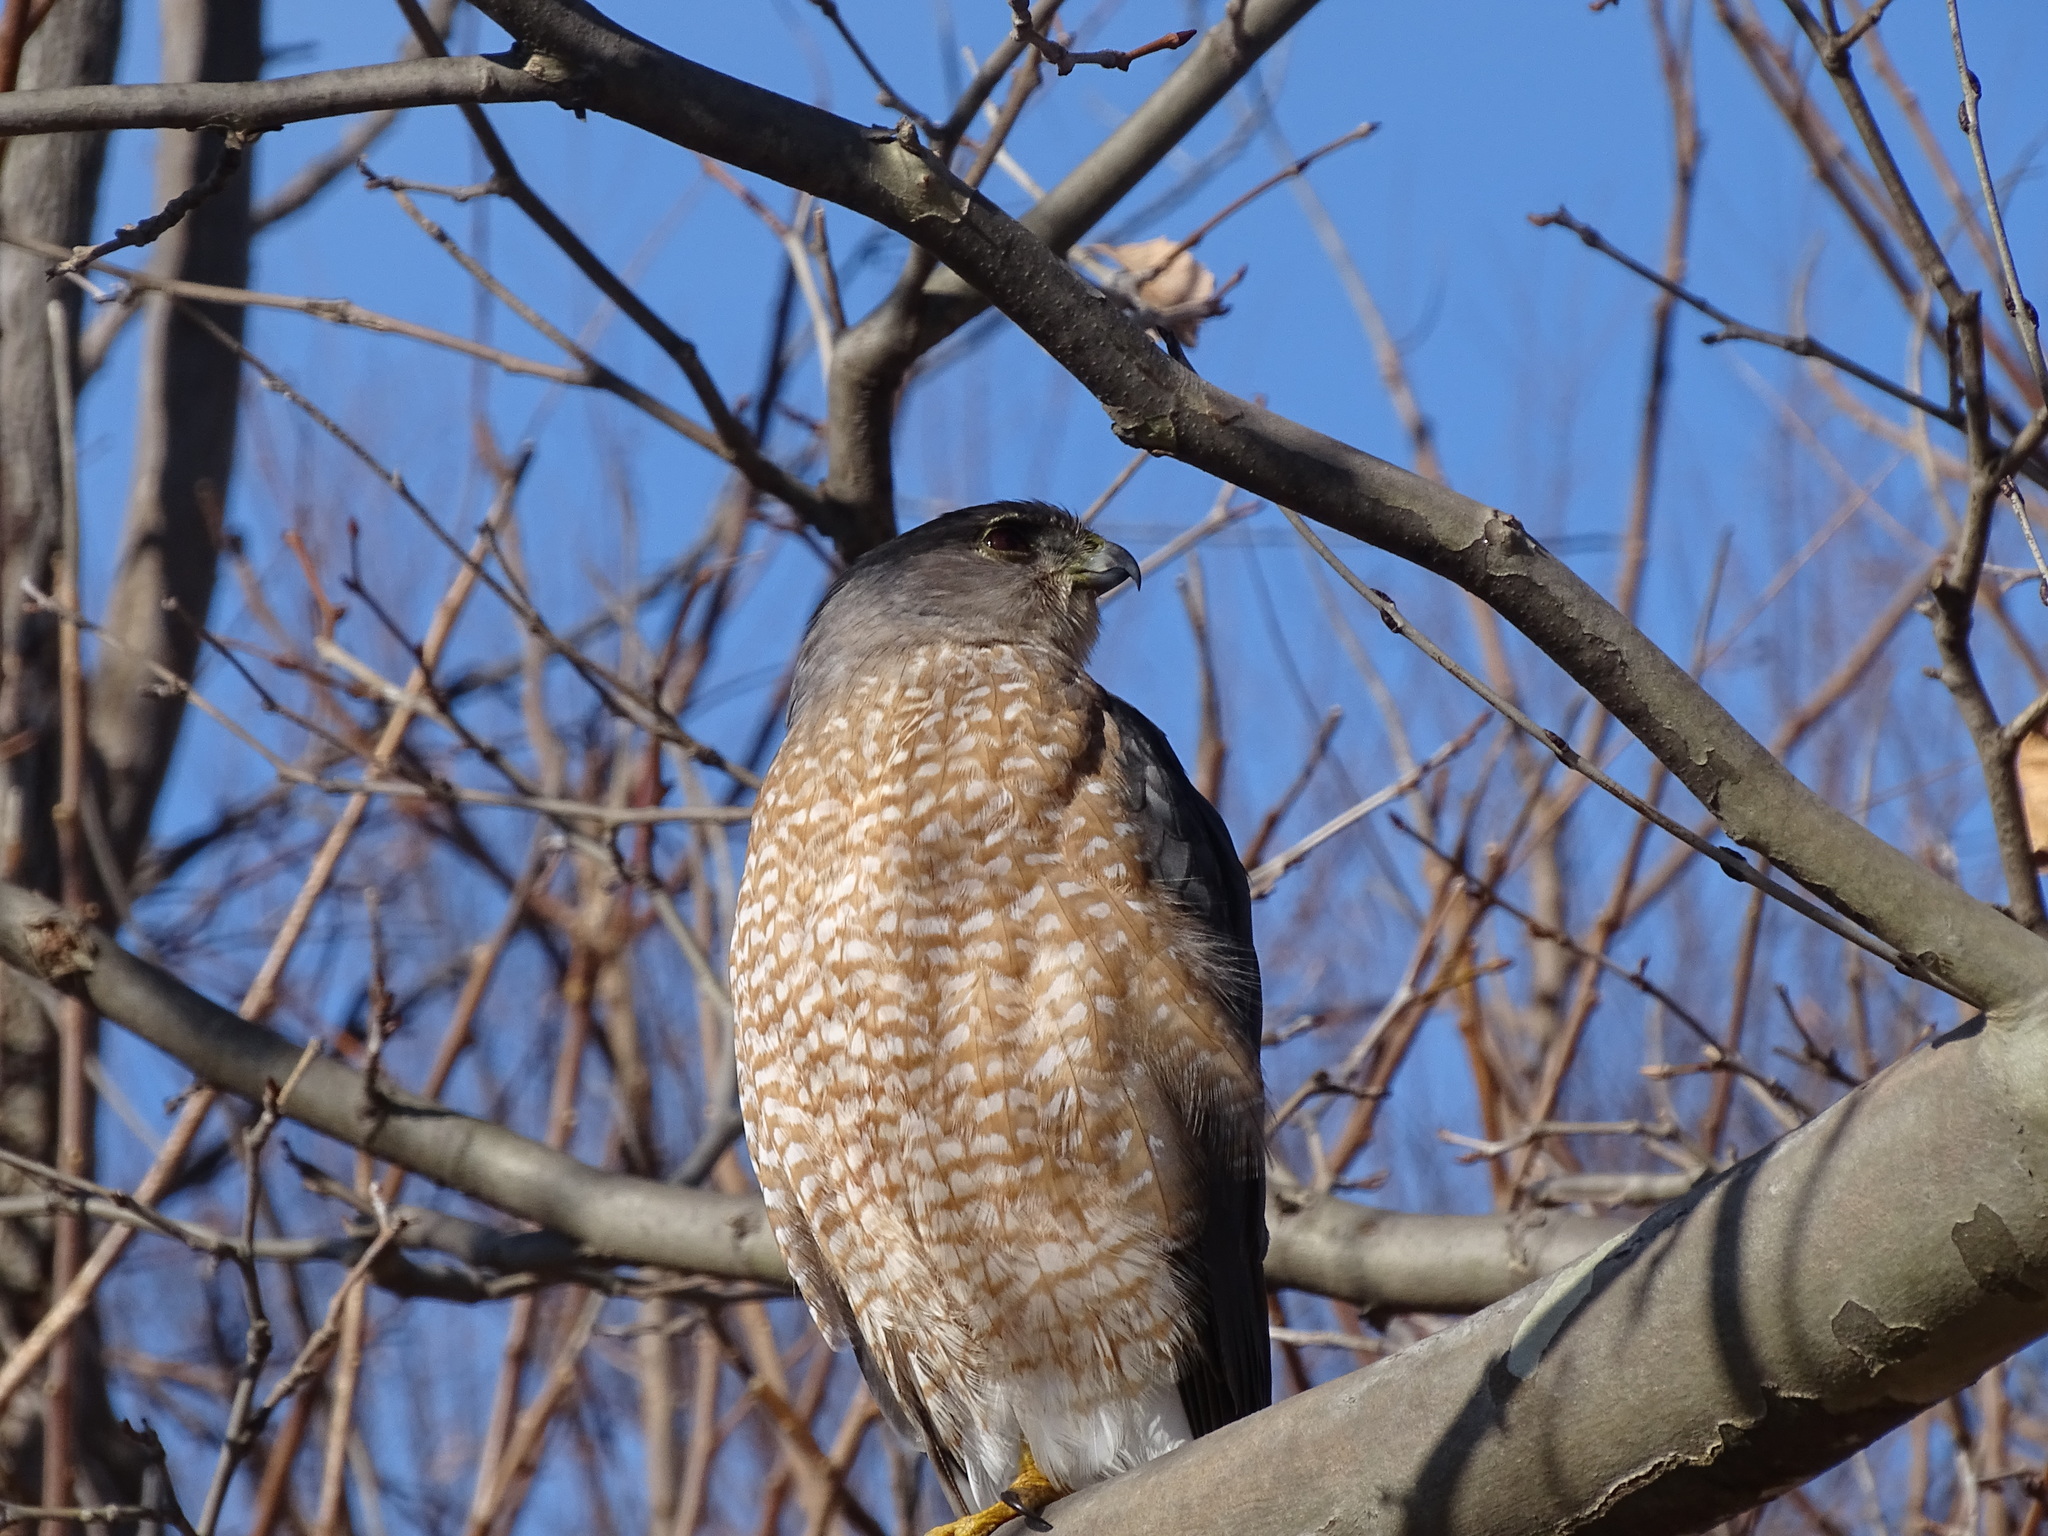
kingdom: Animalia
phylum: Chordata
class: Aves
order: Accipitriformes
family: Accipitridae
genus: Accipiter
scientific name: Accipiter cooperii
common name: Cooper's hawk
